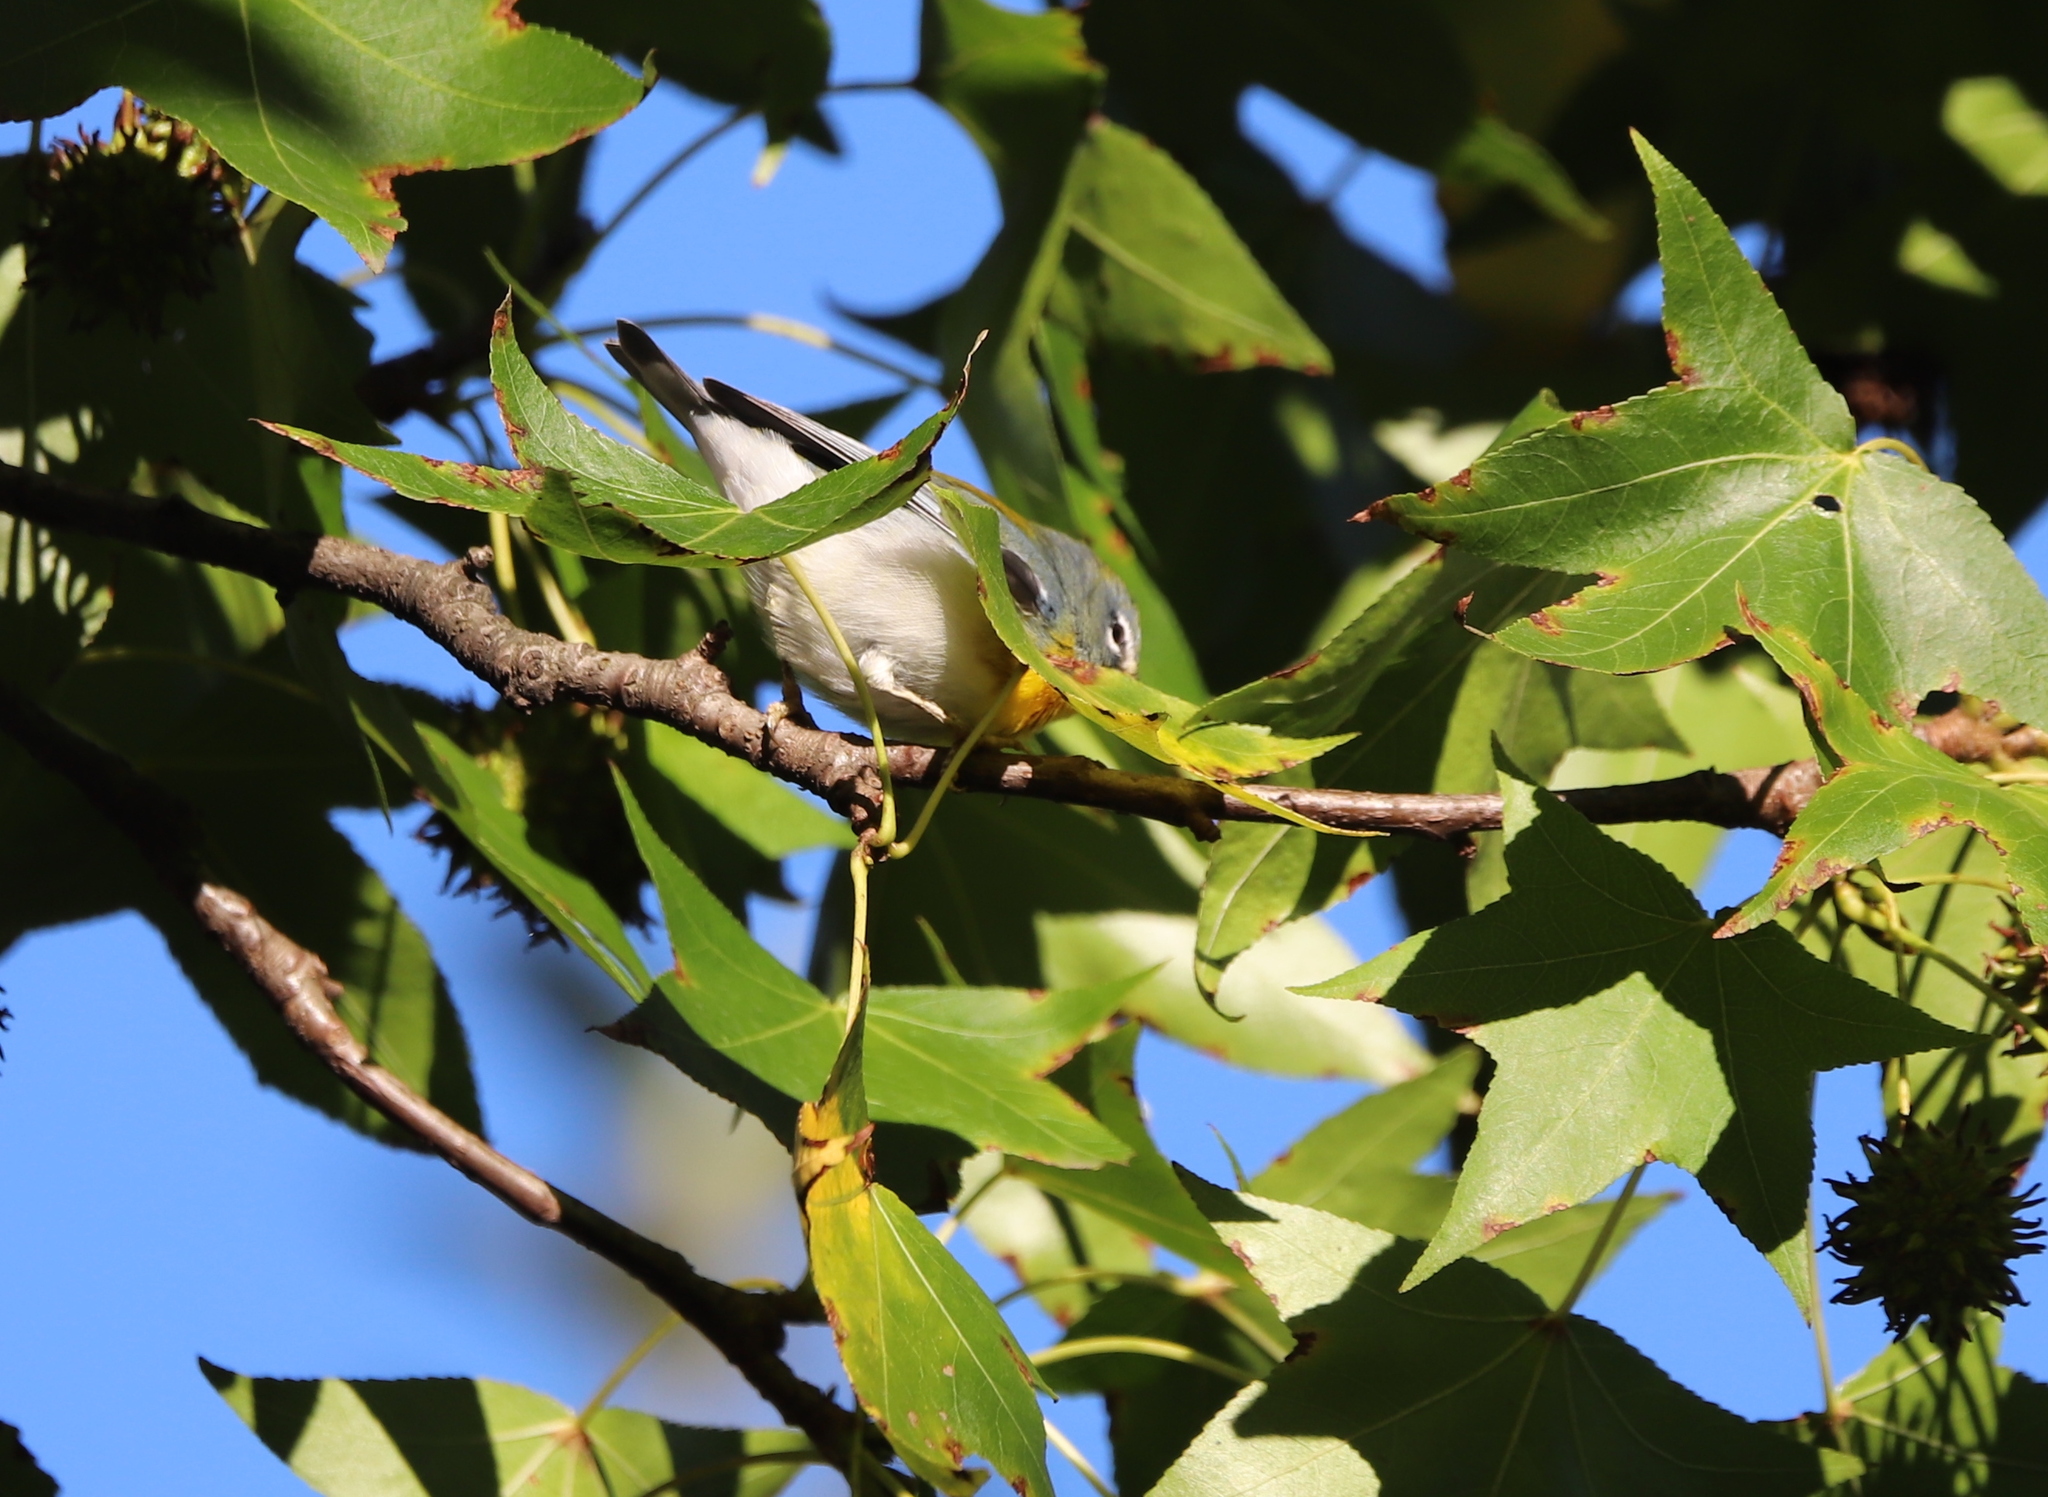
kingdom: Animalia
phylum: Chordata
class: Aves
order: Passeriformes
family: Parulidae
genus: Setophaga
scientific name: Setophaga americana
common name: Northern parula
